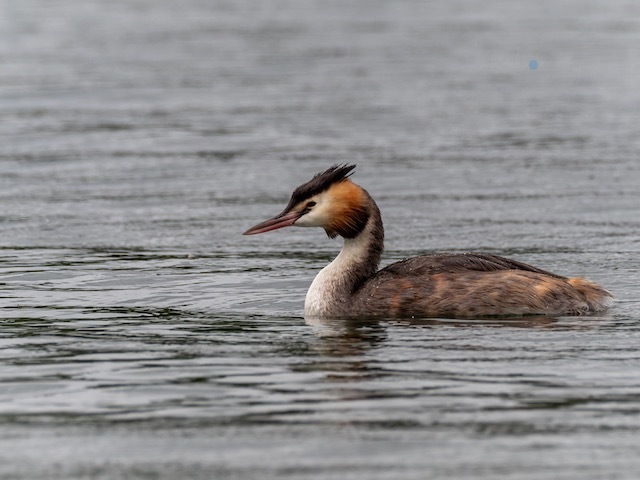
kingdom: Animalia
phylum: Chordata
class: Aves
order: Podicipediformes
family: Podicipedidae
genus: Podiceps
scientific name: Podiceps cristatus
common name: Great crested grebe
